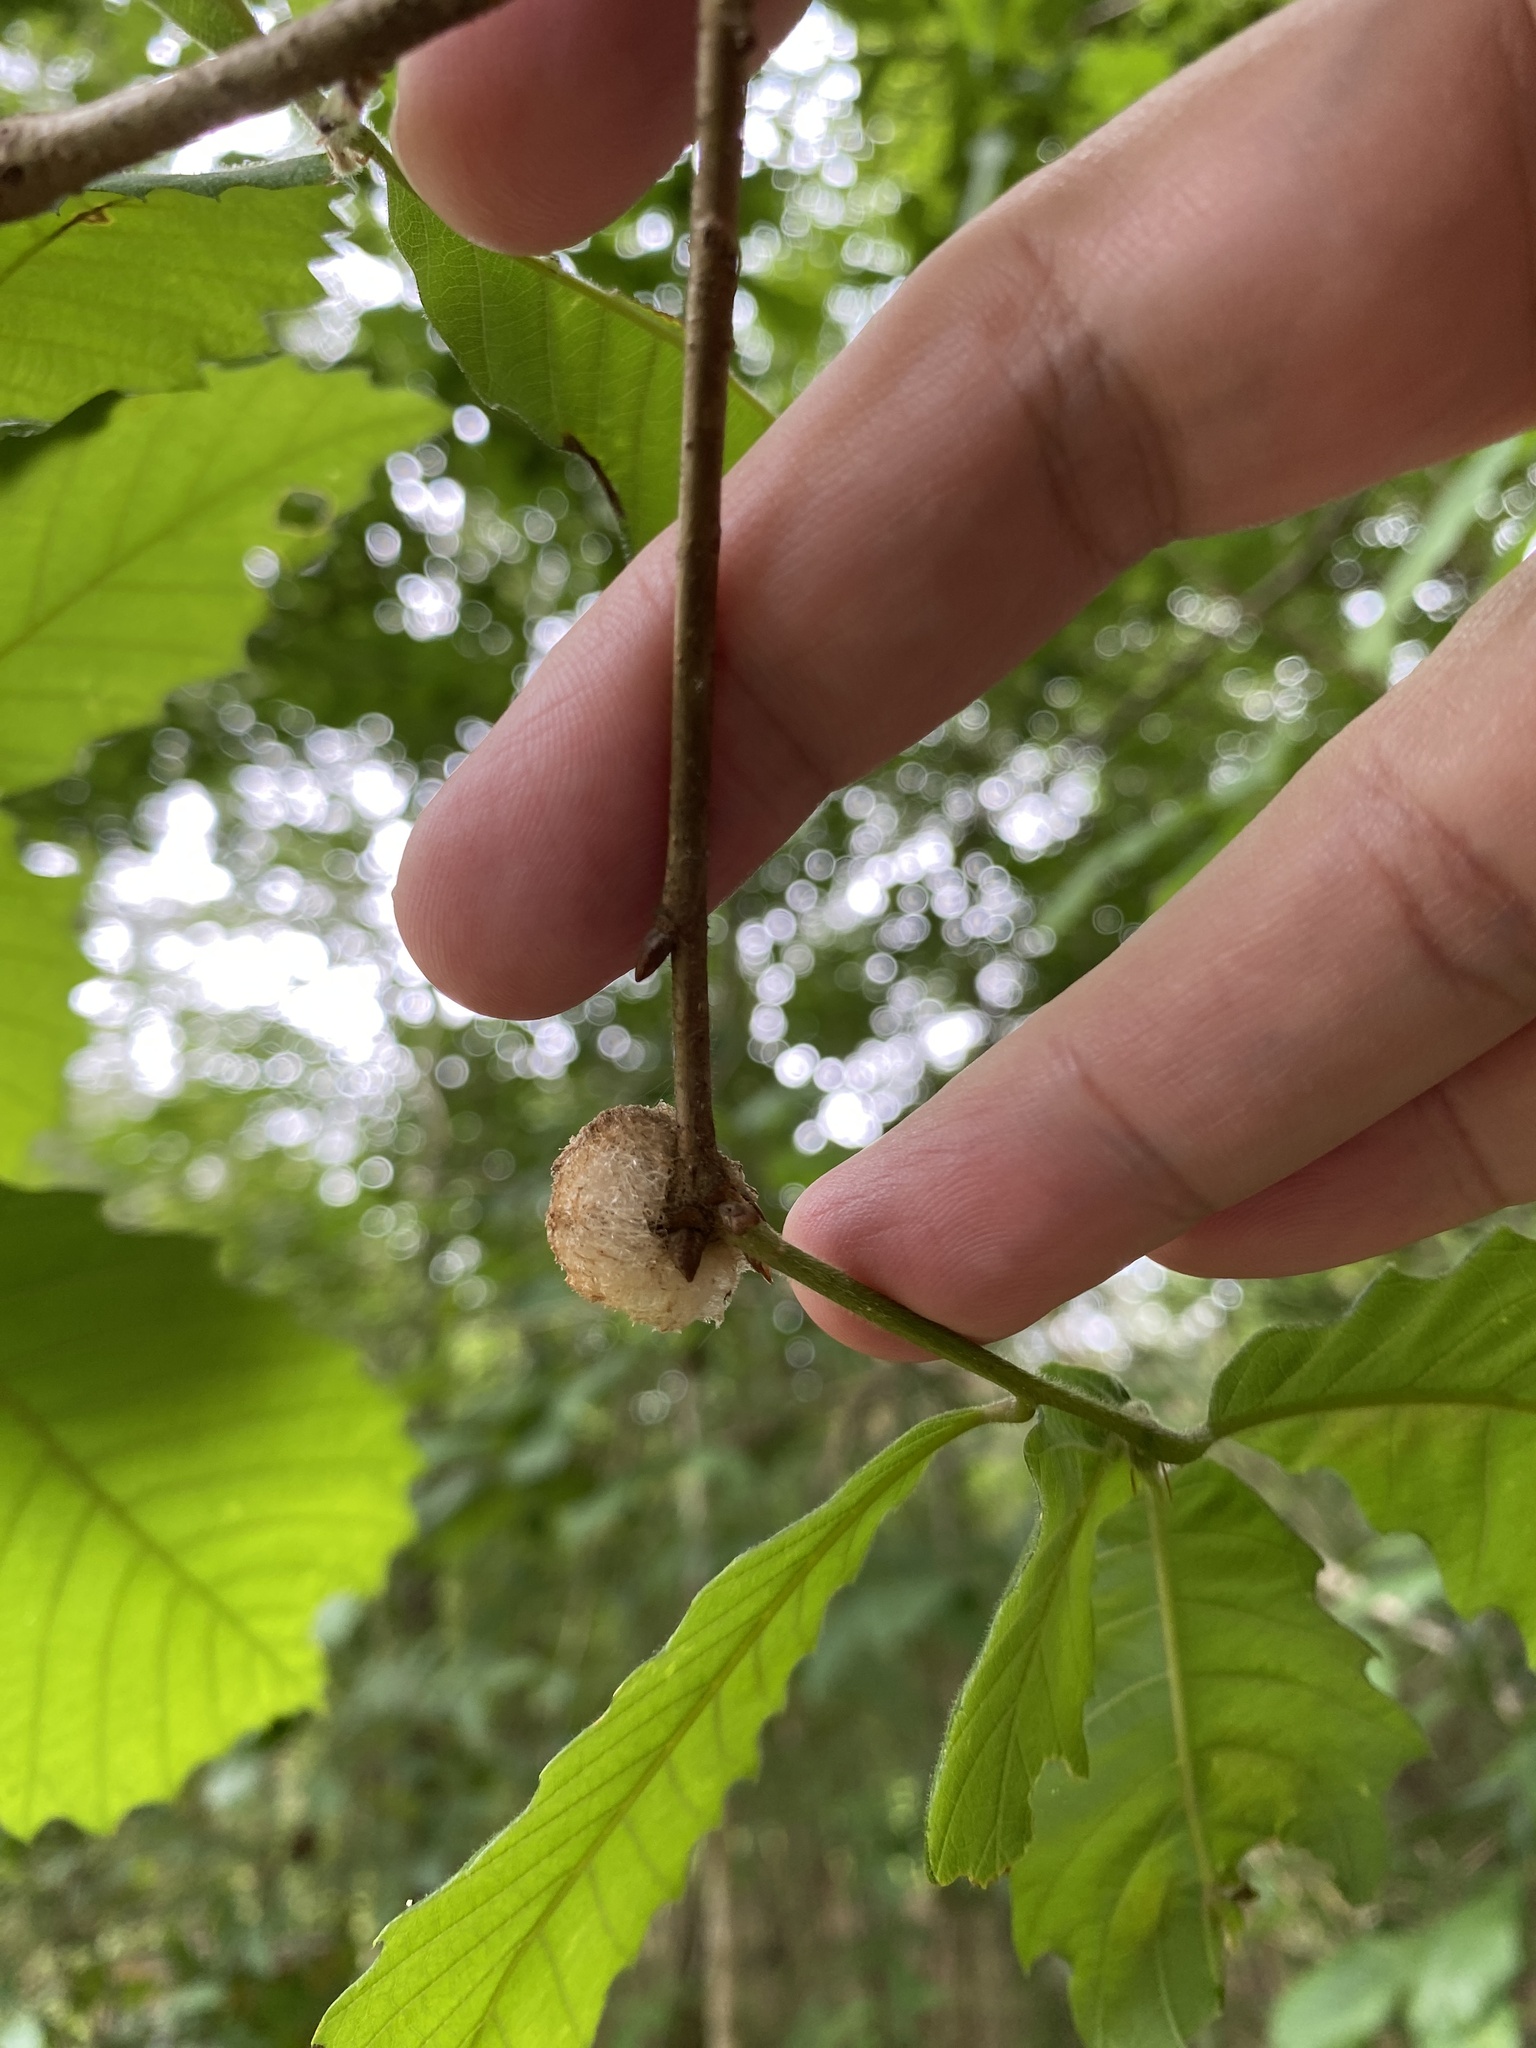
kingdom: Animalia
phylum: Arthropoda
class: Insecta
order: Hymenoptera
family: Cynipidae
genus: Callirhytis
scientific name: Callirhytis
